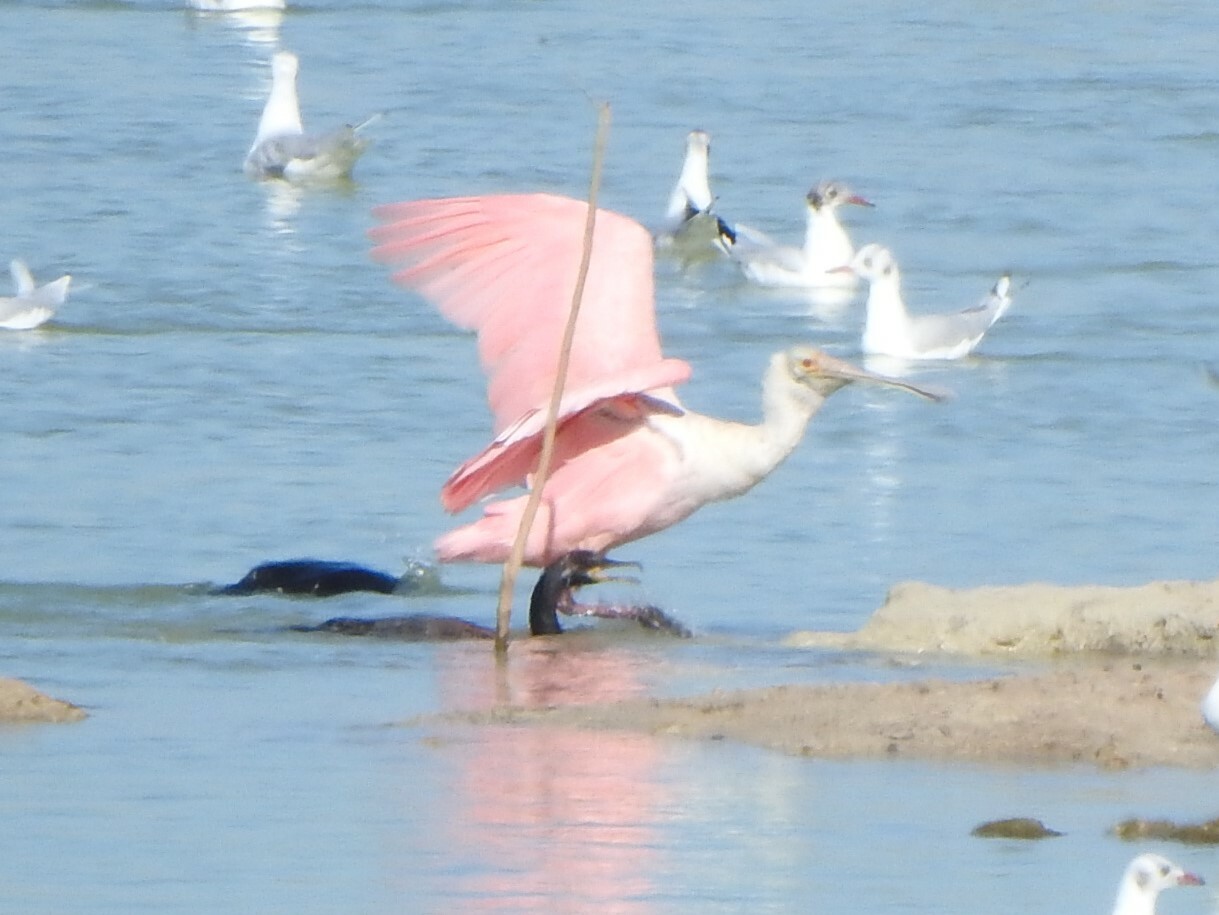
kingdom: Animalia
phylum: Chordata
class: Aves
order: Pelecaniformes
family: Threskiornithidae
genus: Platalea
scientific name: Platalea ajaja
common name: Roseate spoonbill
